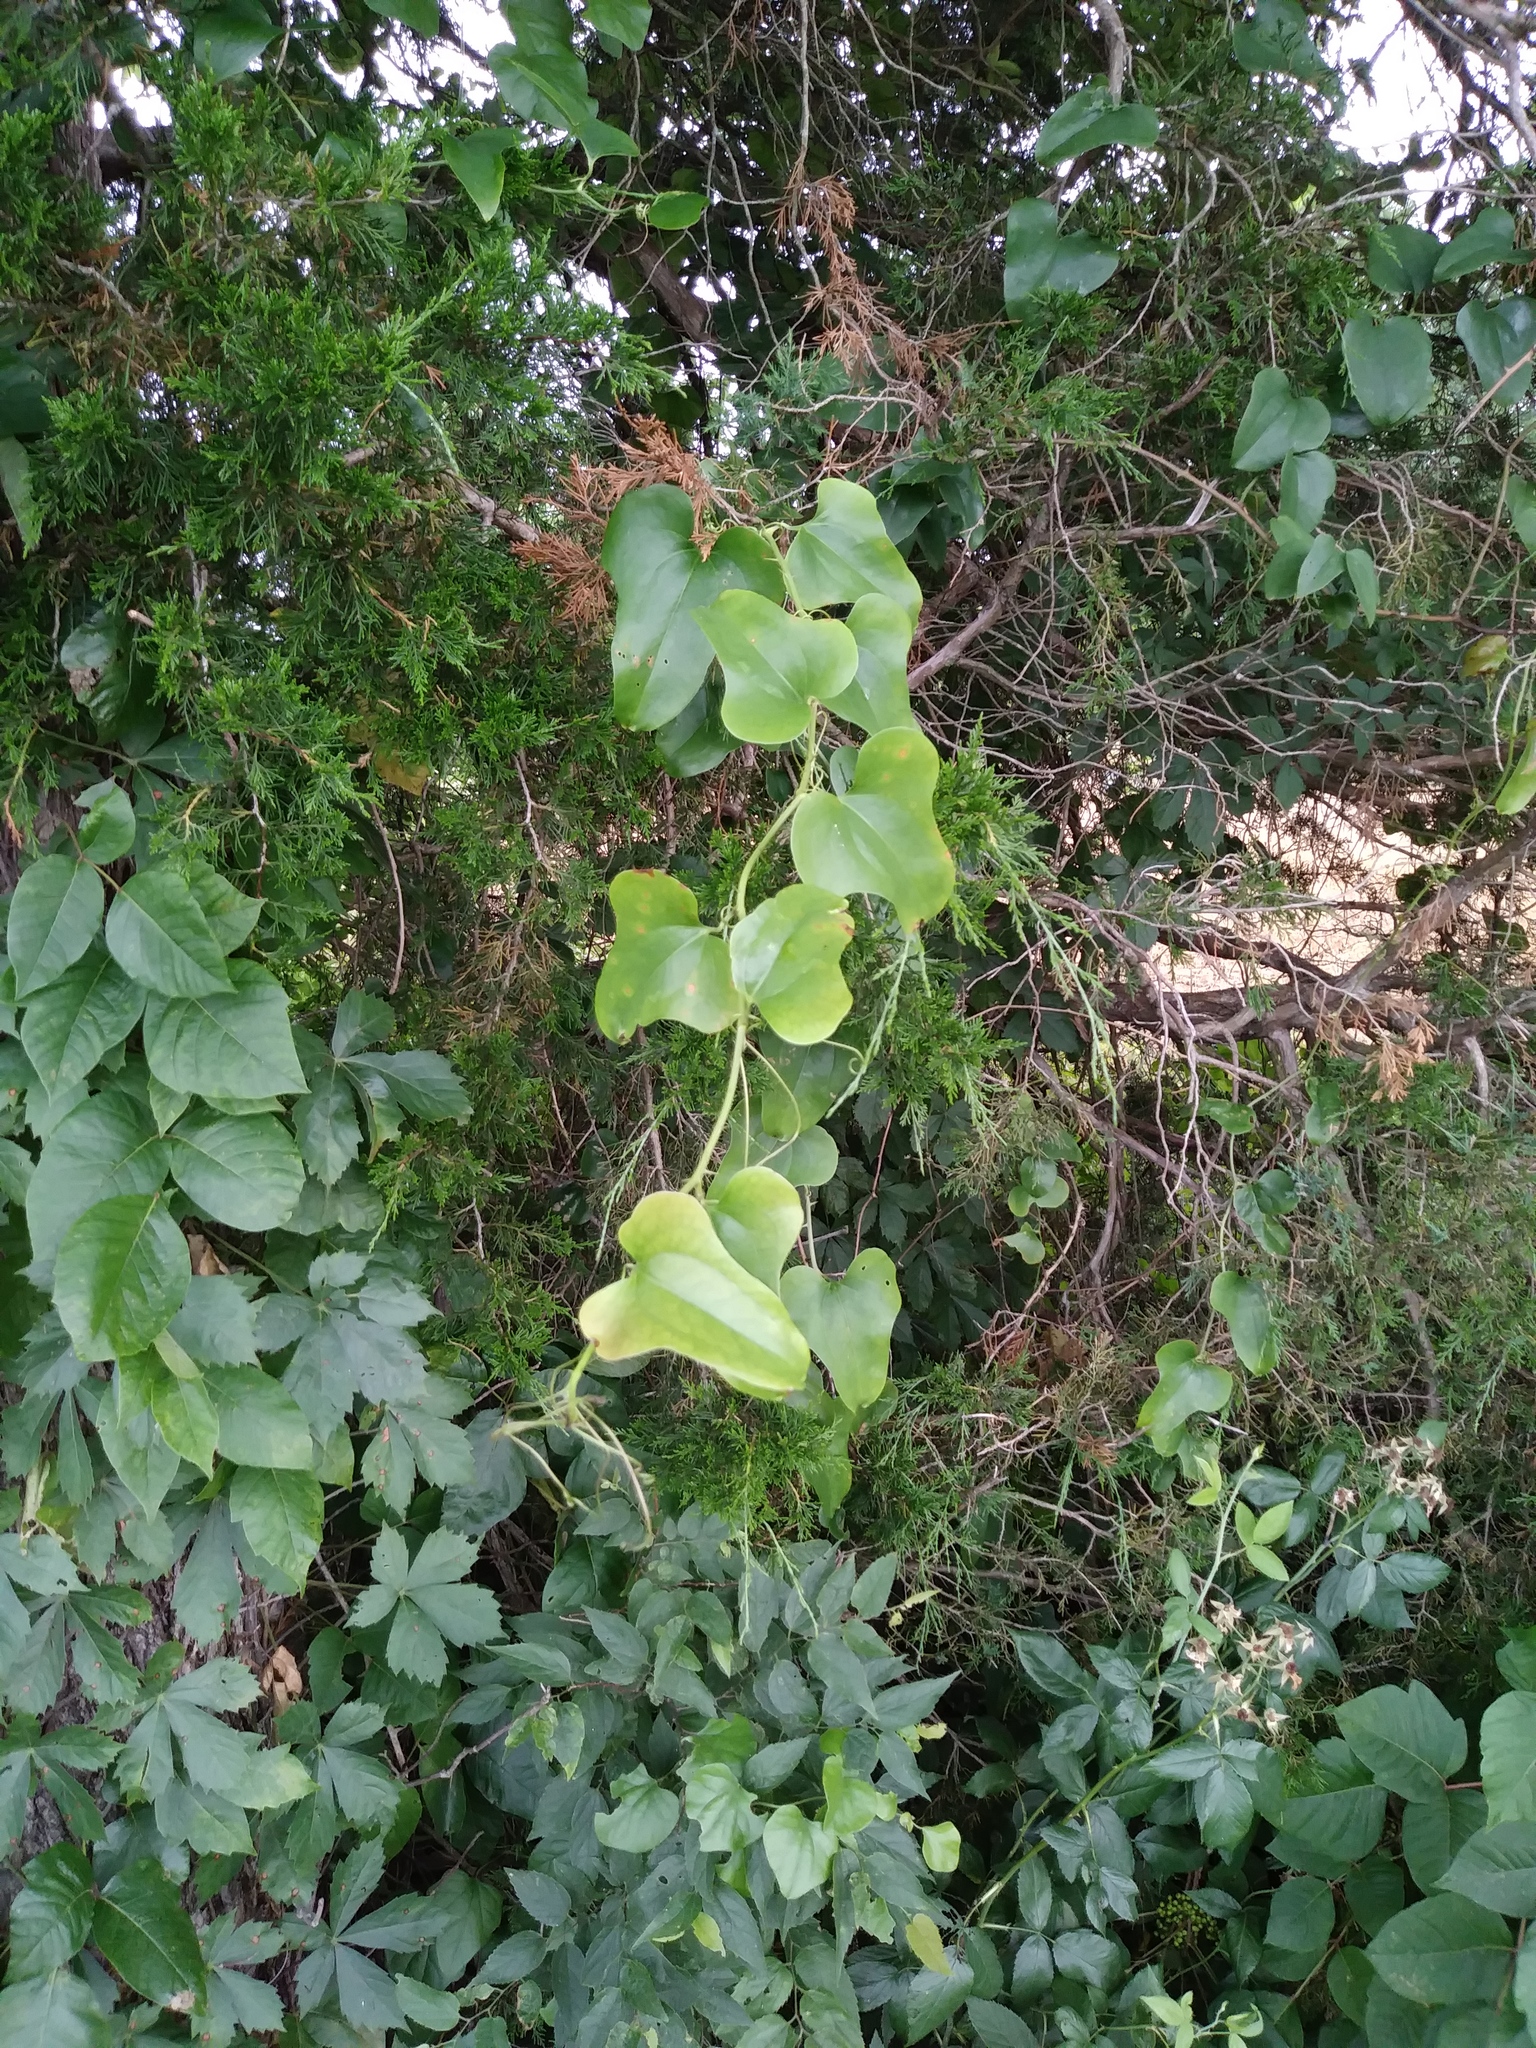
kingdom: Plantae
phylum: Tracheophyta
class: Liliopsida
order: Liliales
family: Smilacaceae
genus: Smilax
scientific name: Smilax bona-nox
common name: Catbrier
